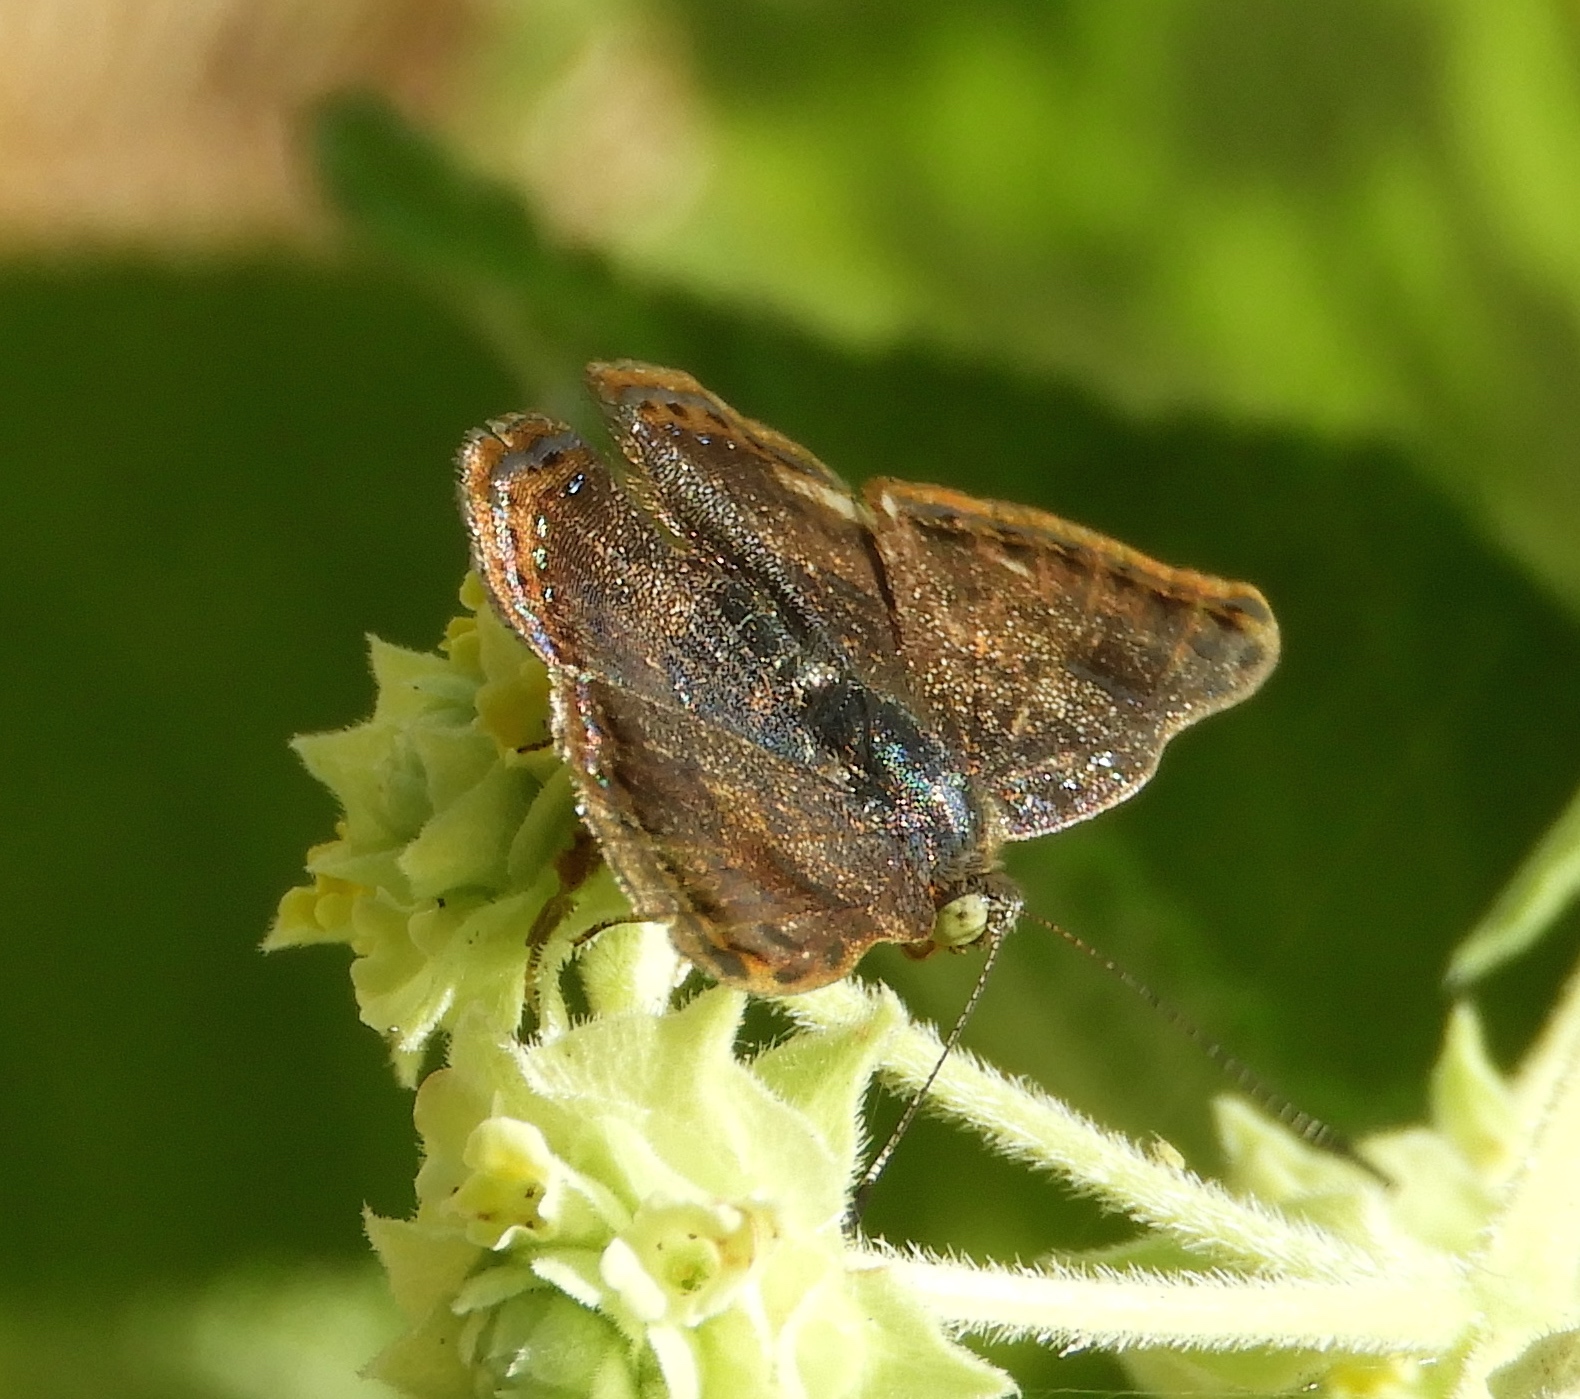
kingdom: Animalia
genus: Caria
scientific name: Caria ino
